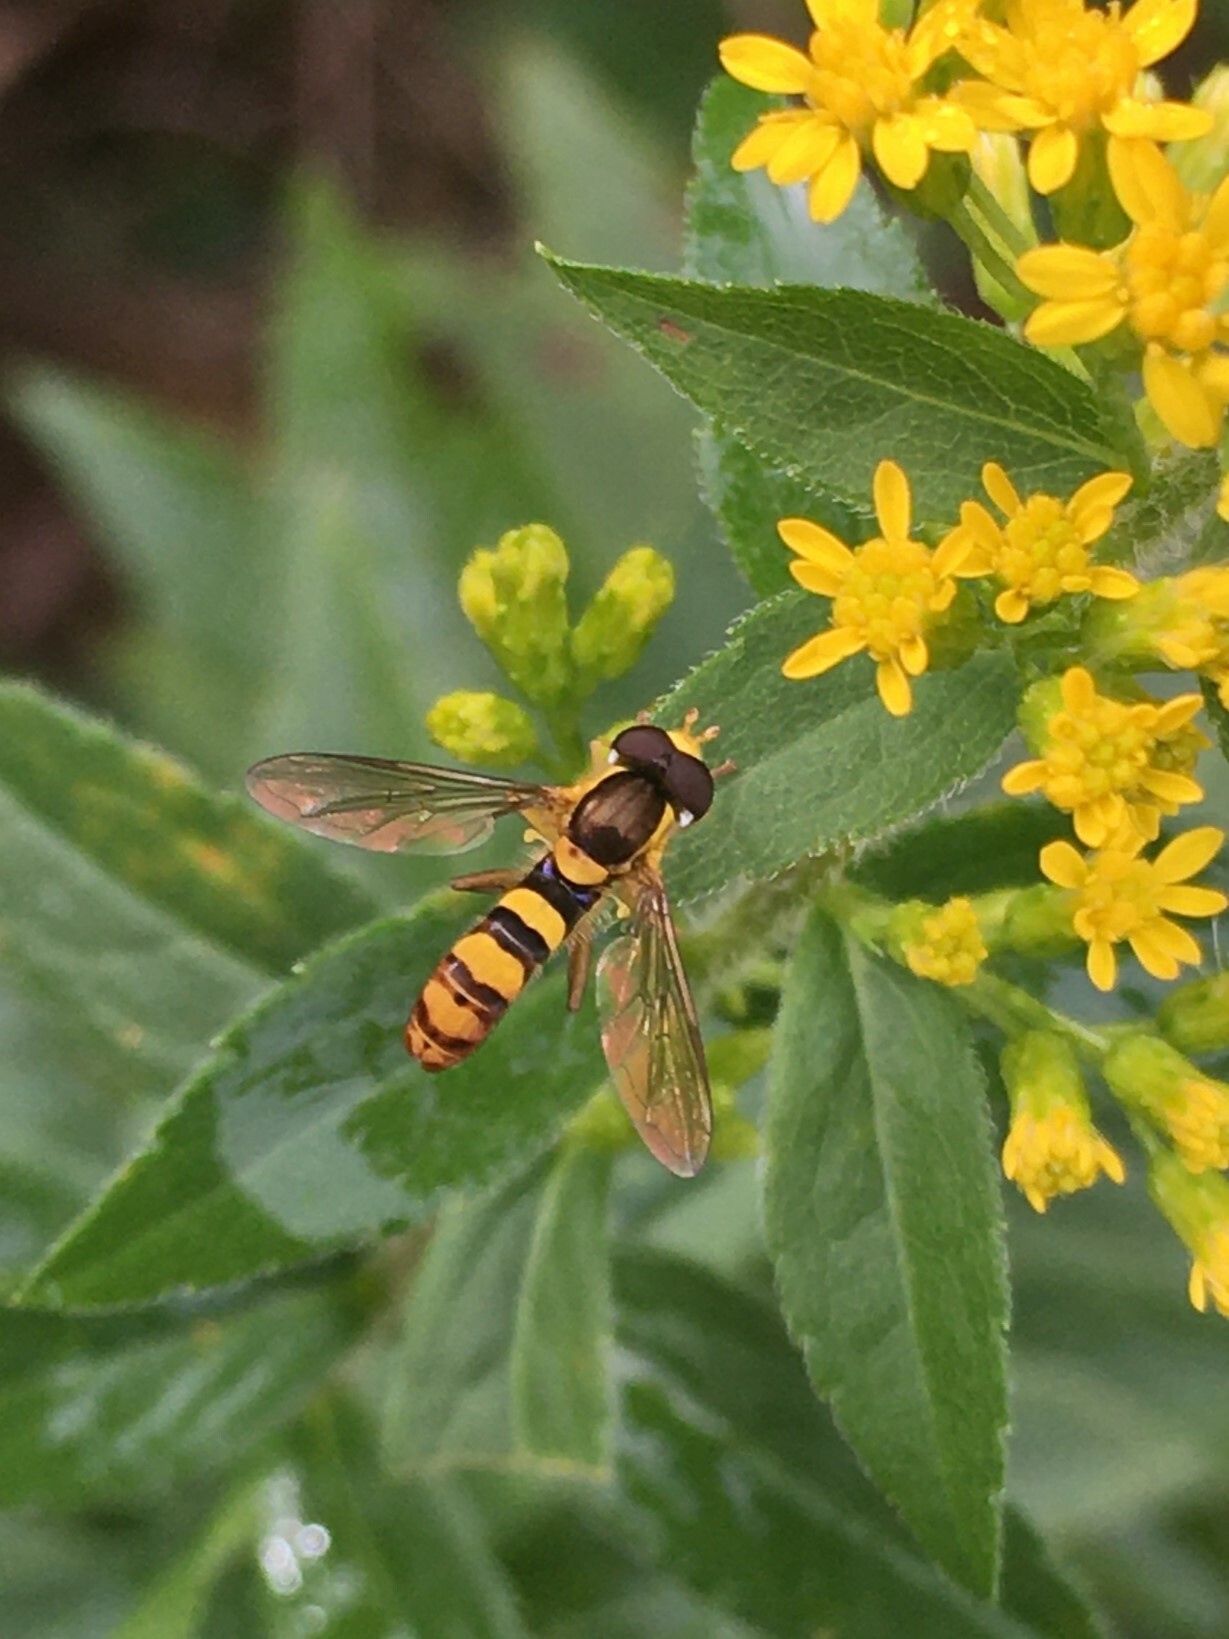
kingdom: Animalia
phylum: Arthropoda
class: Insecta
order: Diptera
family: Syrphidae
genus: Sphaerophoria
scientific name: Sphaerophoria
